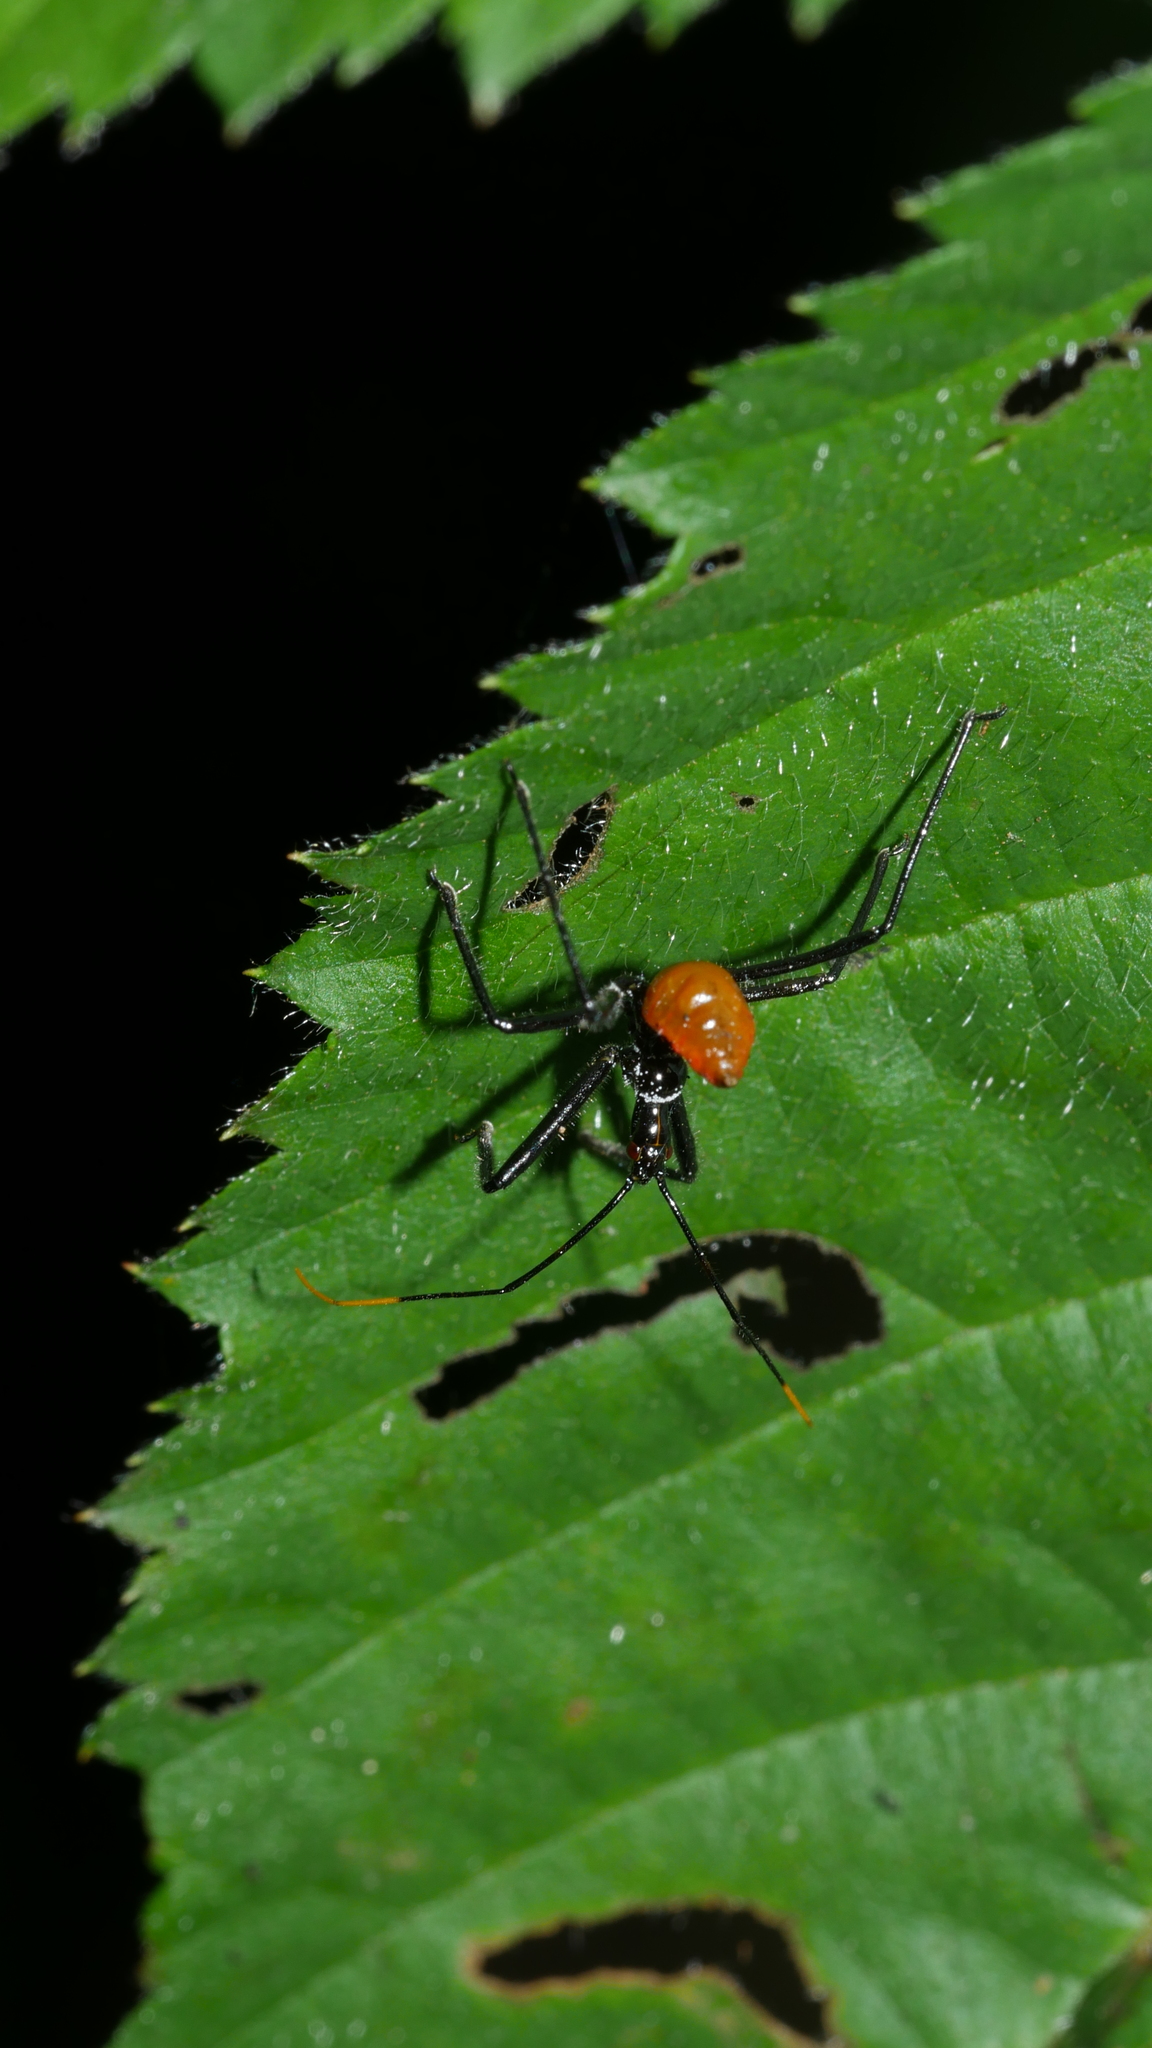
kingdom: Animalia
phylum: Arthropoda
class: Insecta
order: Hemiptera
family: Reduviidae
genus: Arilus
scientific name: Arilus cristatus
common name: North american wheel bug
